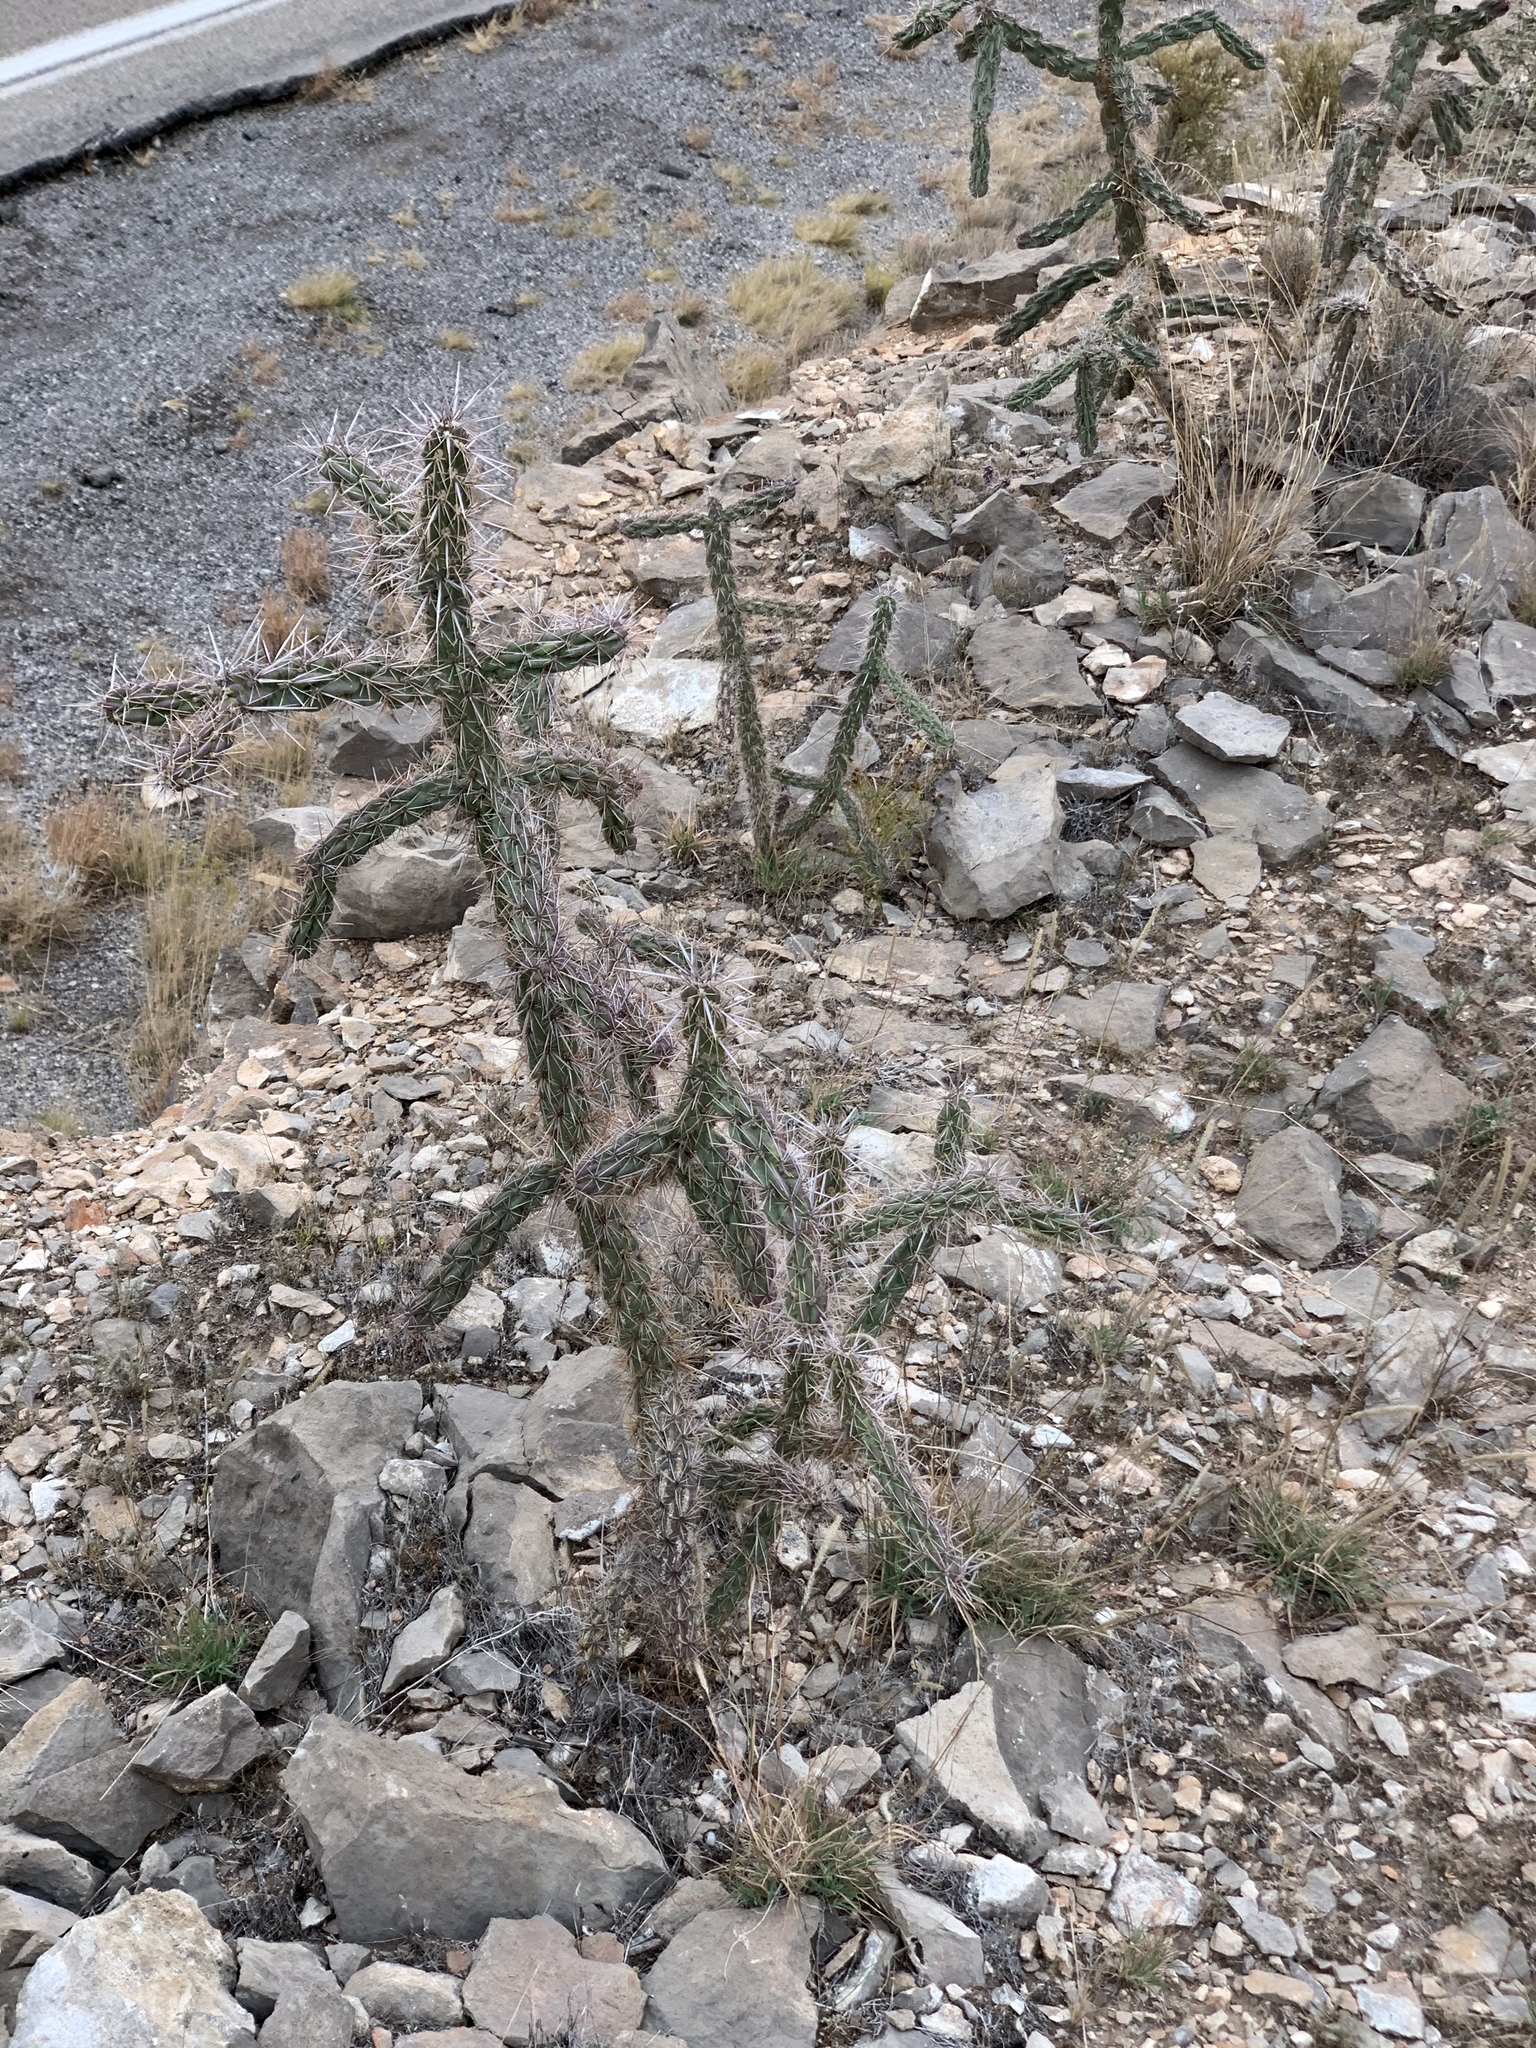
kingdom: Plantae
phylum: Tracheophyta
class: Magnoliopsida
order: Caryophyllales
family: Cactaceae
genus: Cylindropuntia
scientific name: Cylindropuntia imbricata
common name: Candelabrum cactus
